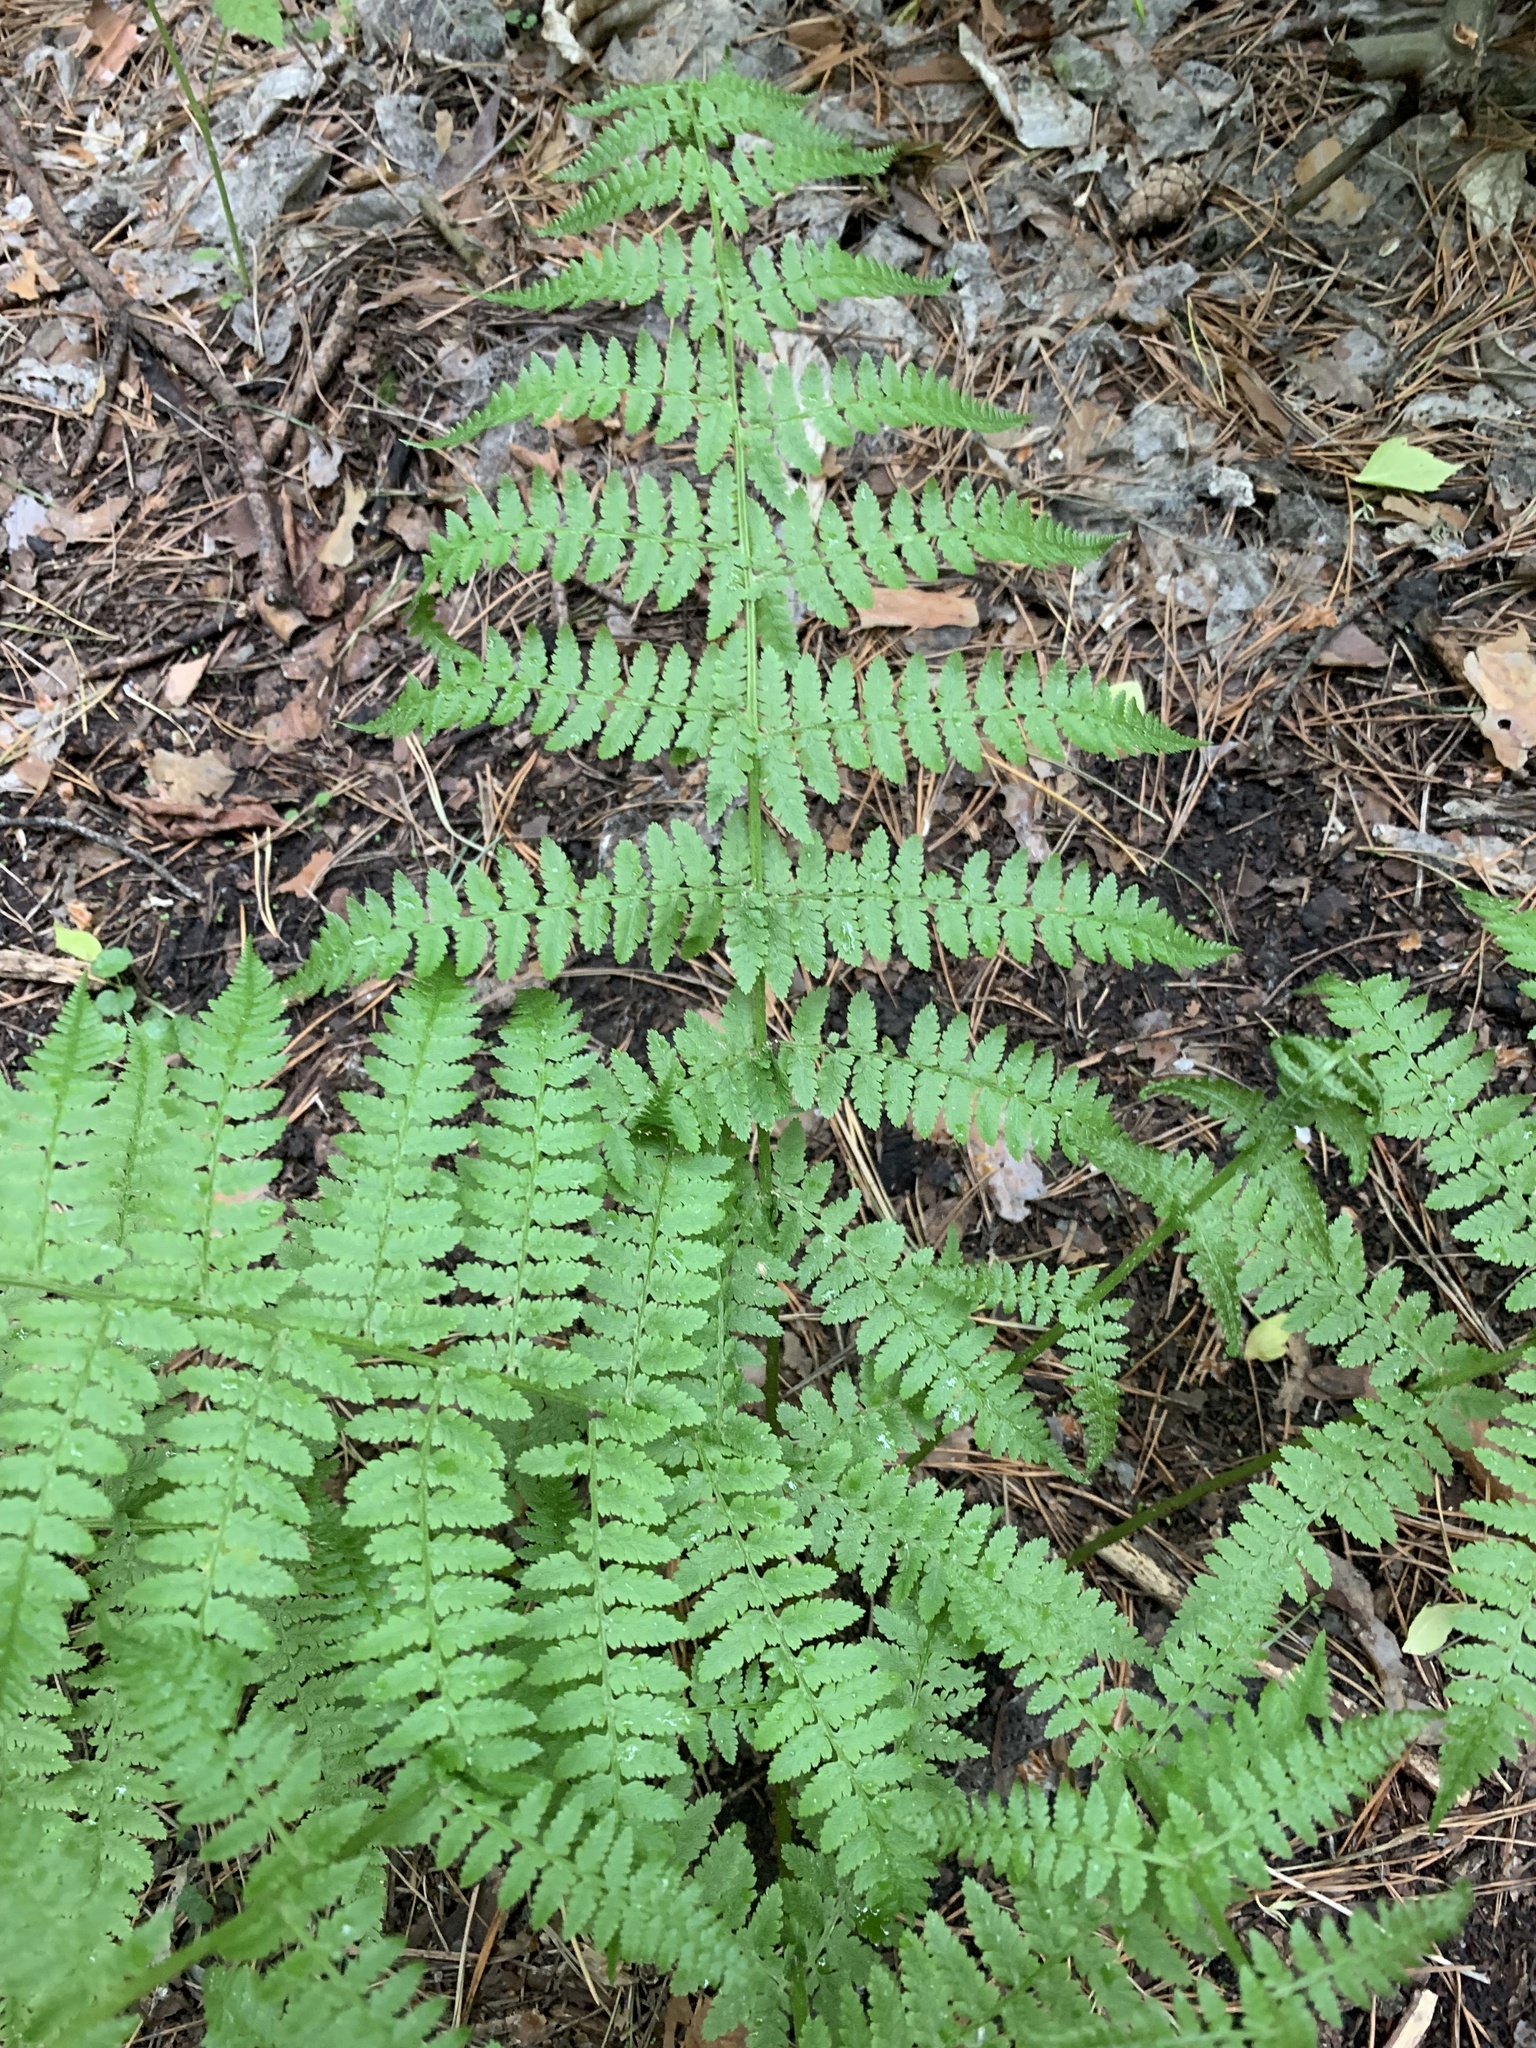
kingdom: Plantae
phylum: Tracheophyta
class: Polypodiopsida
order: Polypodiales
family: Athyriaceae
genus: Athyrium
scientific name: Athyrium filix-femina
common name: Lady fern
